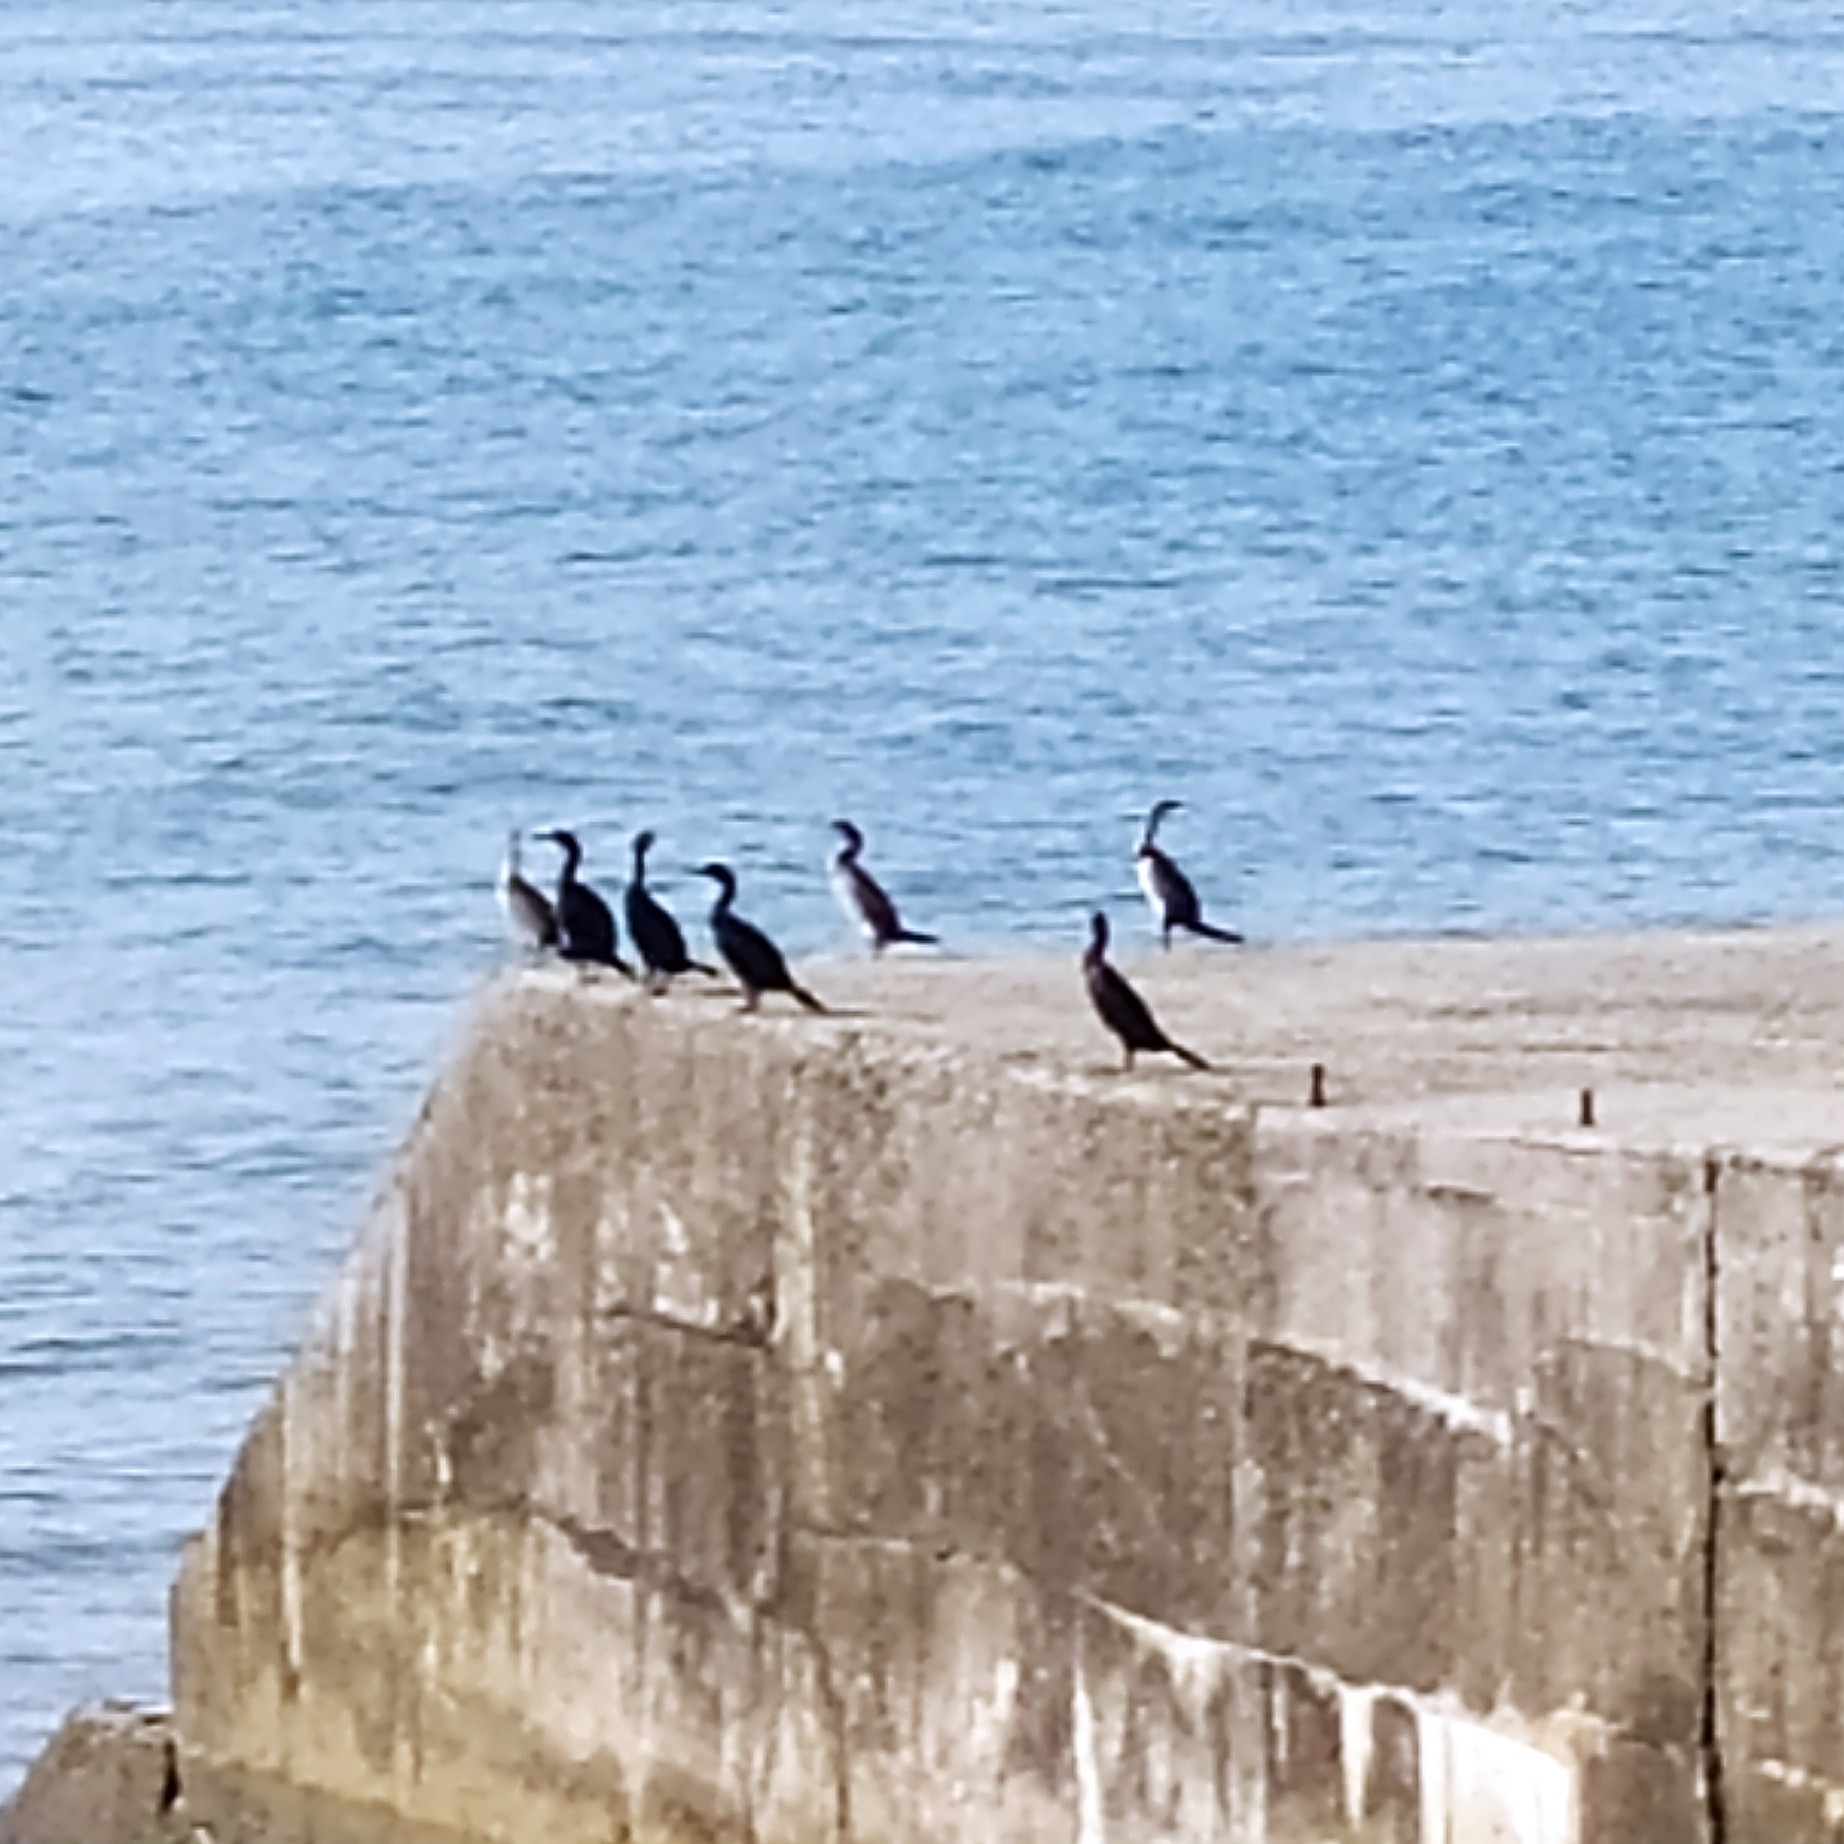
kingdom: Animalia
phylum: Chordata
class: Aves
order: Suliformes
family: Phalacrocoracidae
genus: Phalacrocorax
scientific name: Phalacrocorax aristotelis
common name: European shag
